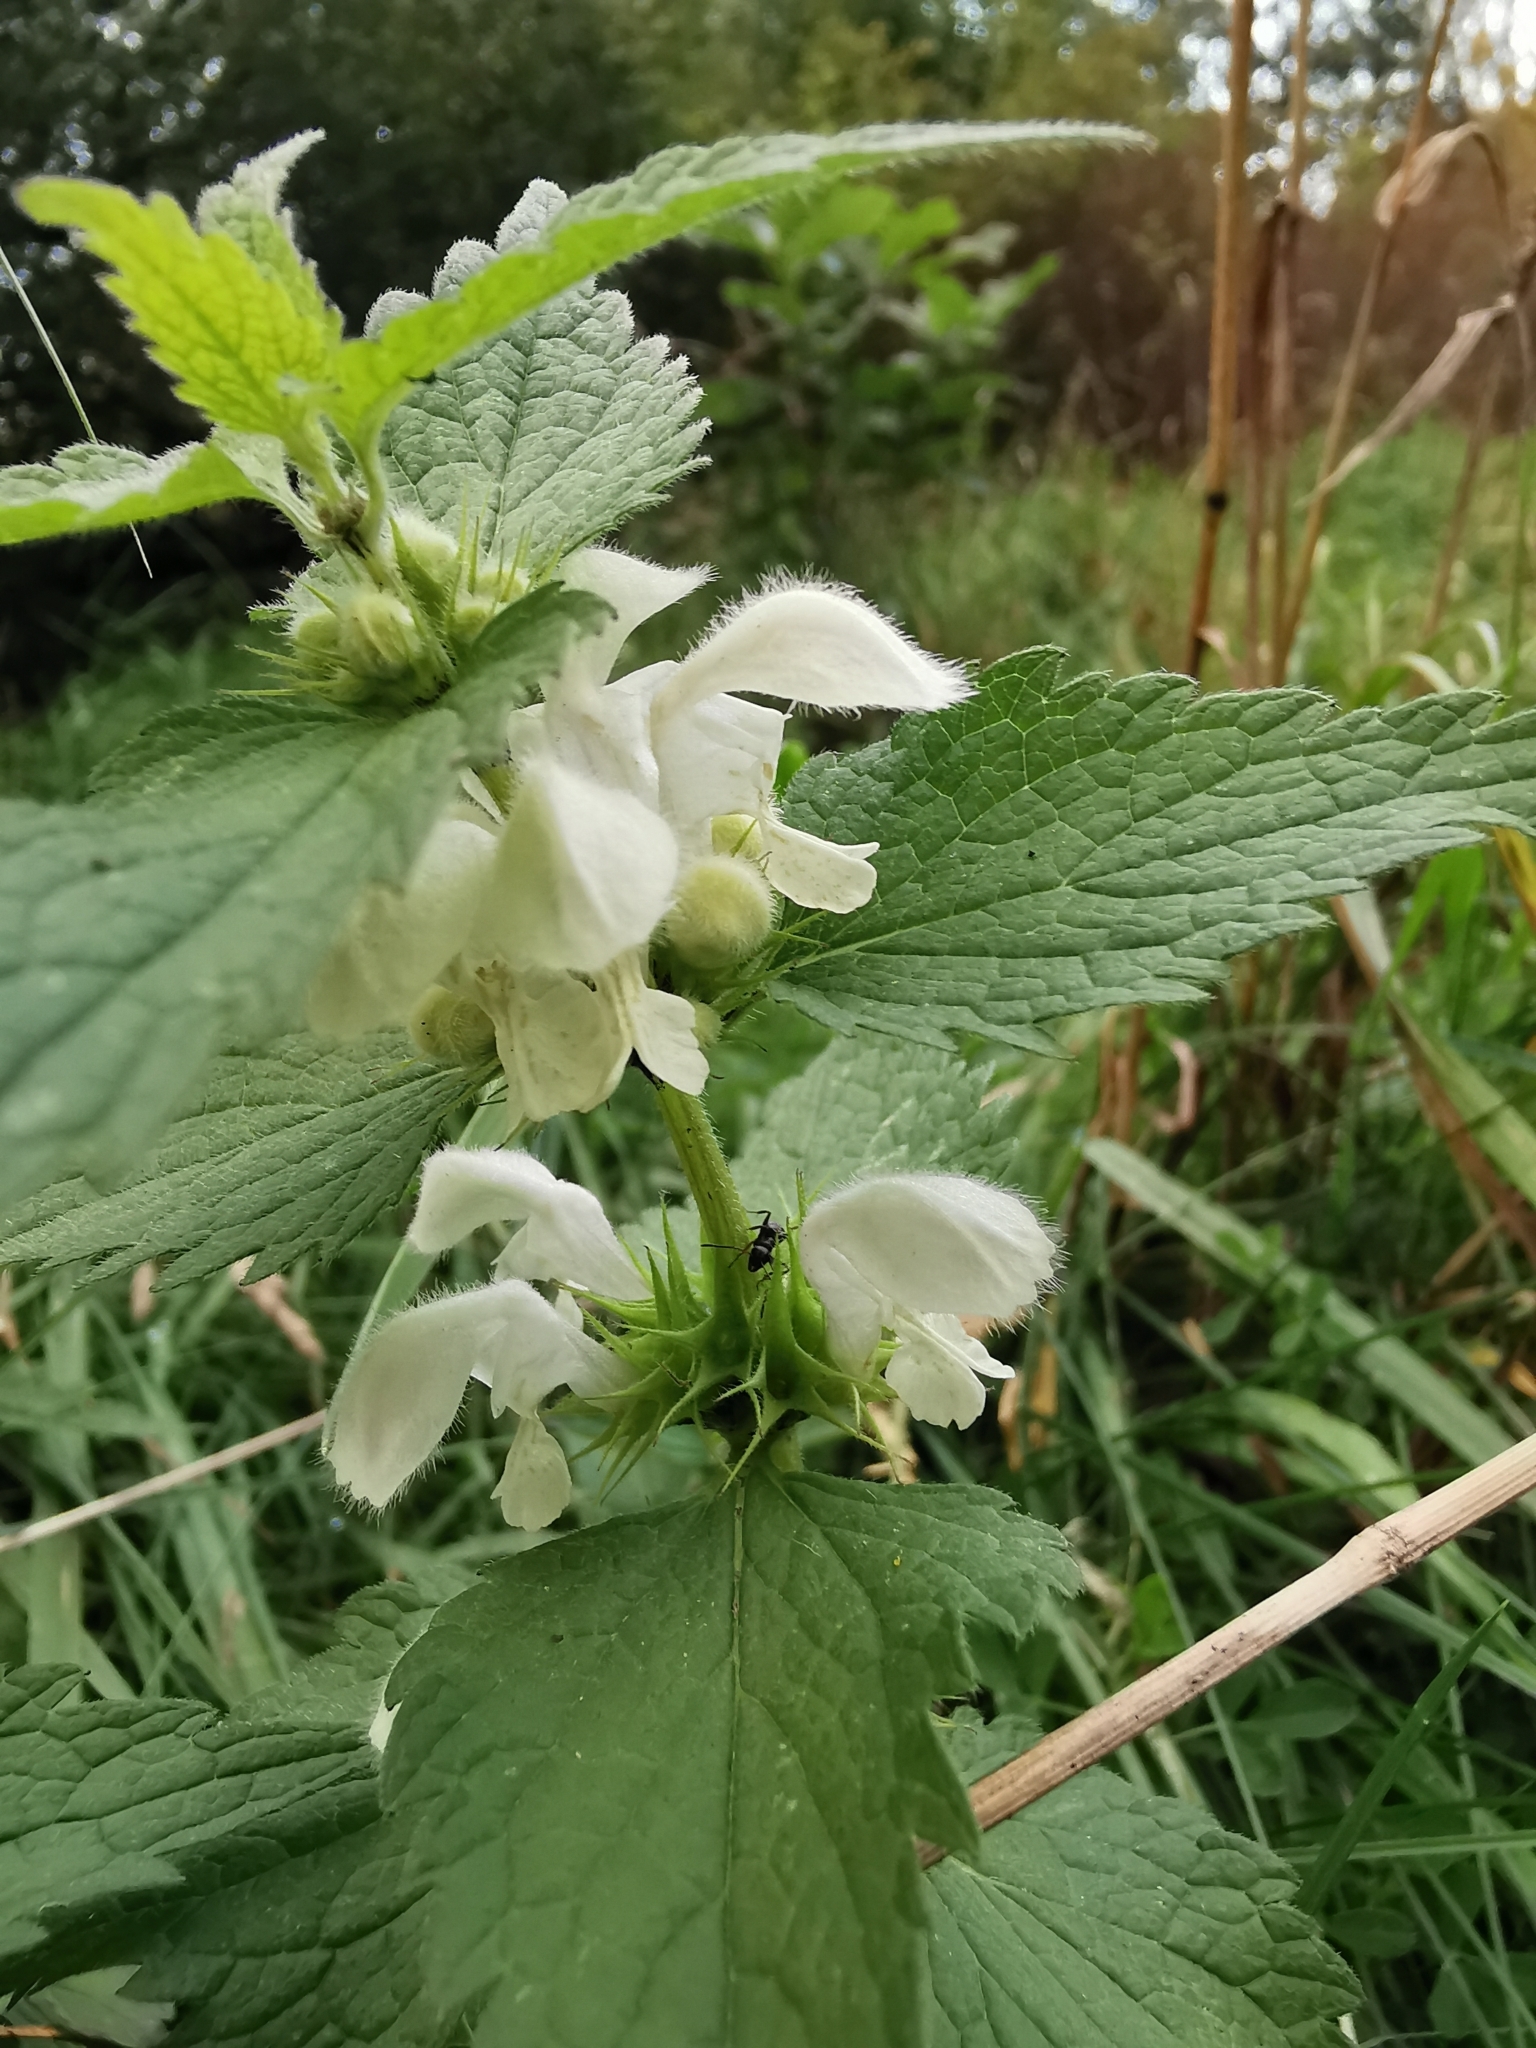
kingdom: Plantae
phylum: Tracheophyta
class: Magnoliopsida
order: Lamiales
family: Lamiaceae
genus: Lamium
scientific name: Lamium album
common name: White dead-nettle
